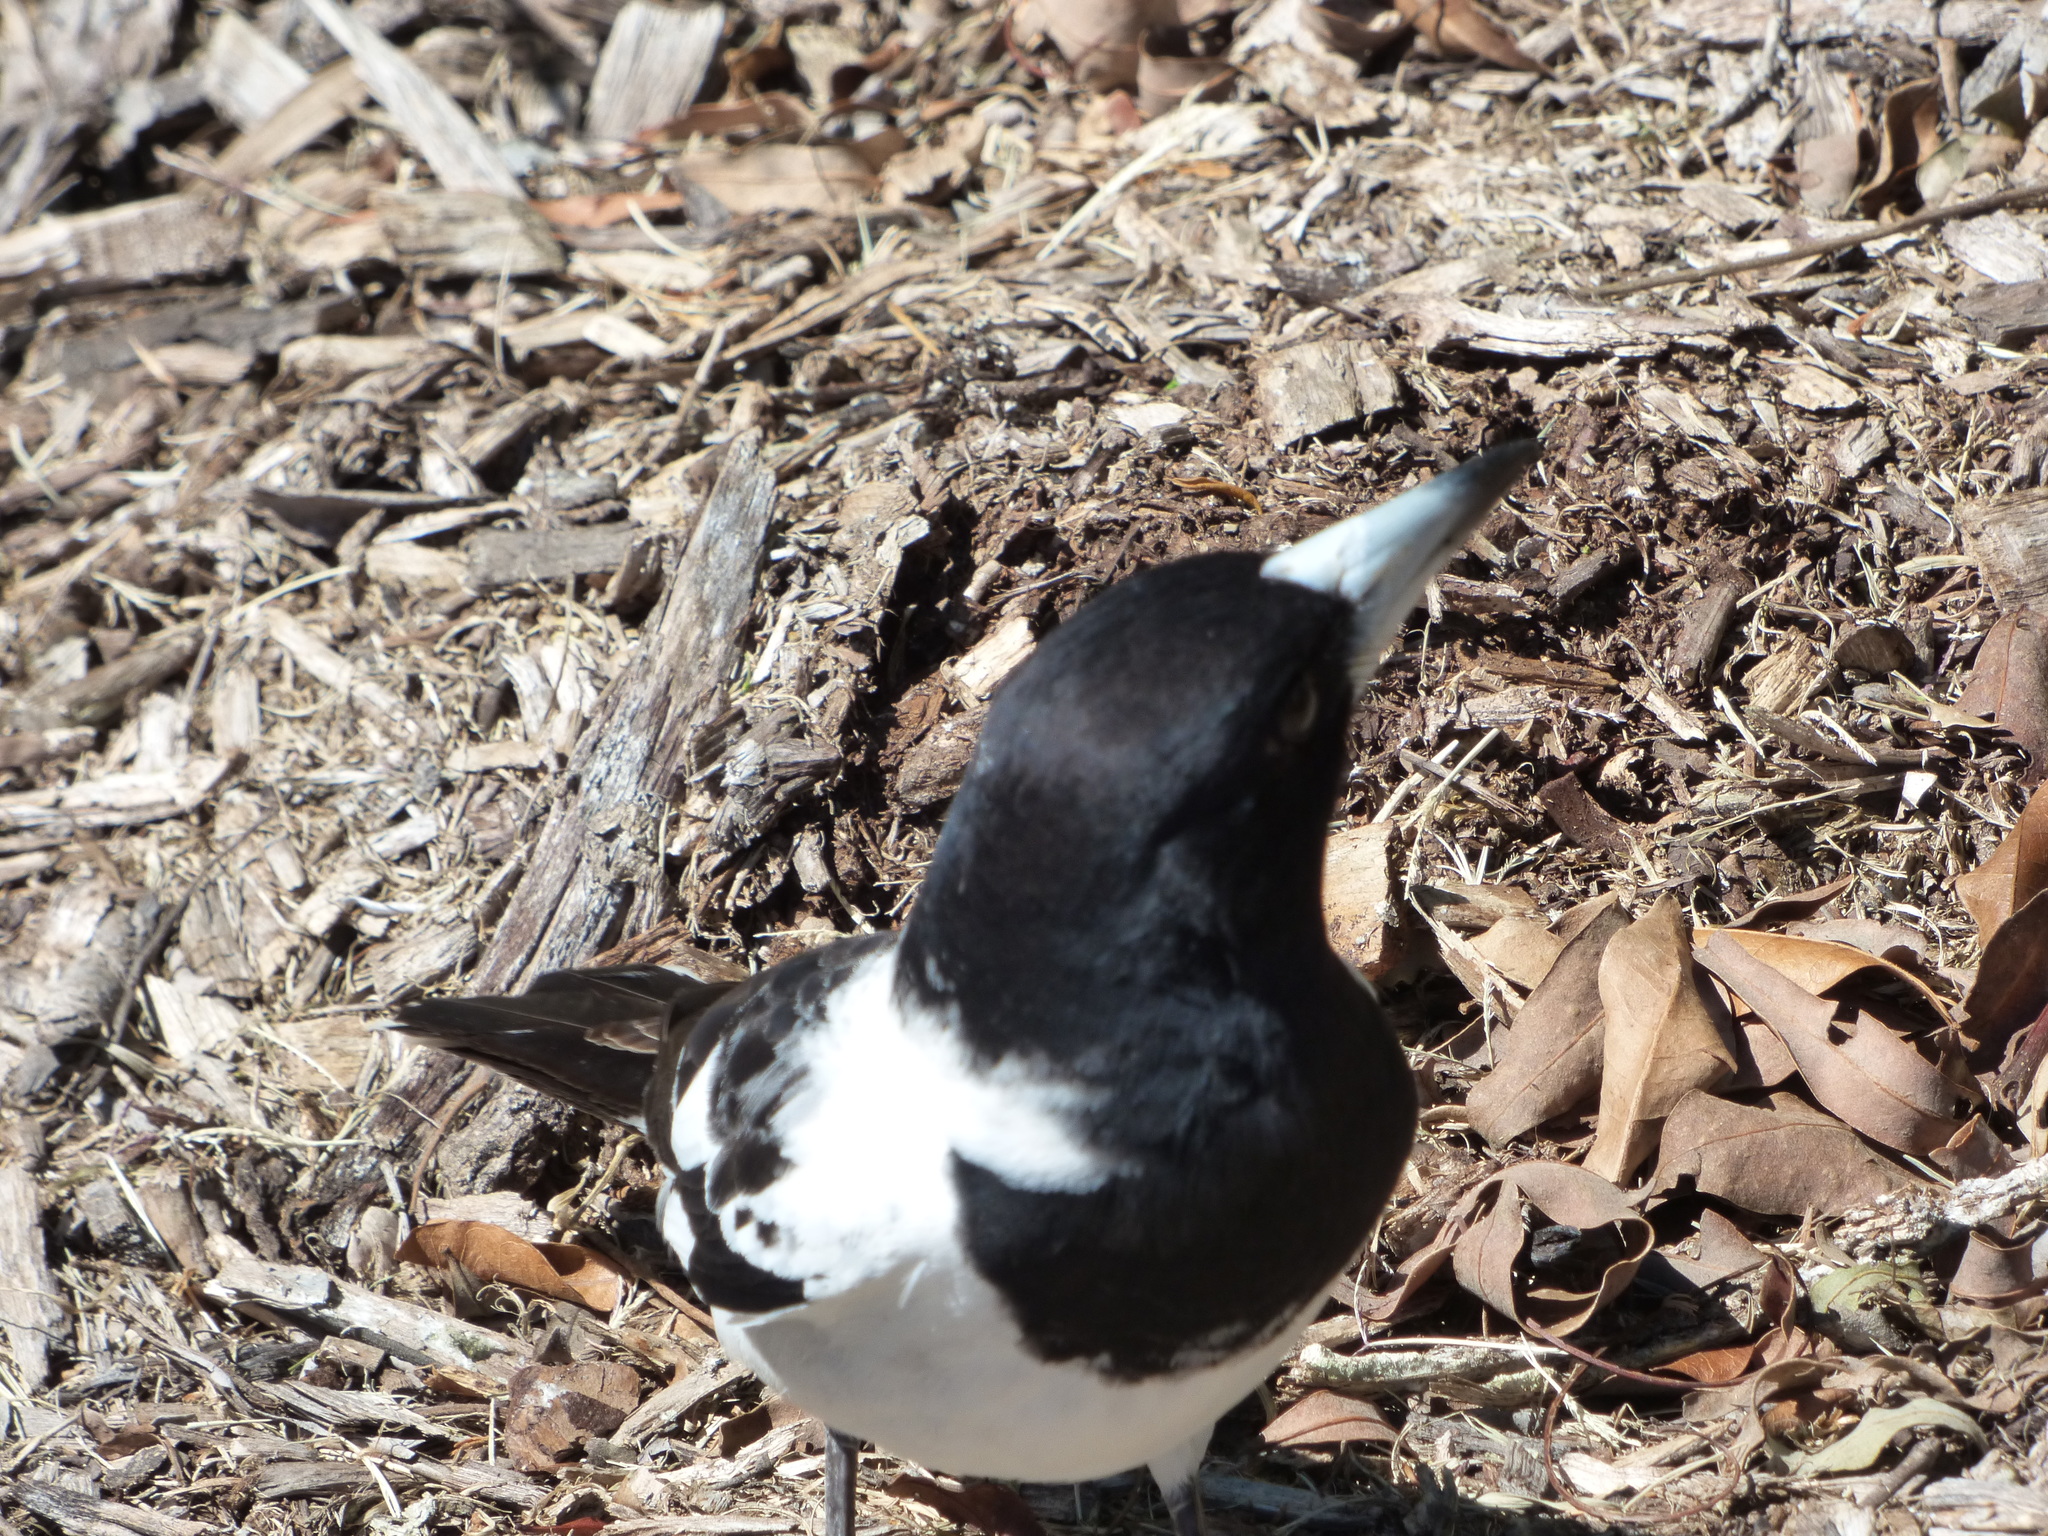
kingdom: Animalia
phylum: Chordata
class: Aves
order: Passeriformes
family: Cracticidae
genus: Cracticus
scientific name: Cracticus nigrogularis
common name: Pied butcherbird
